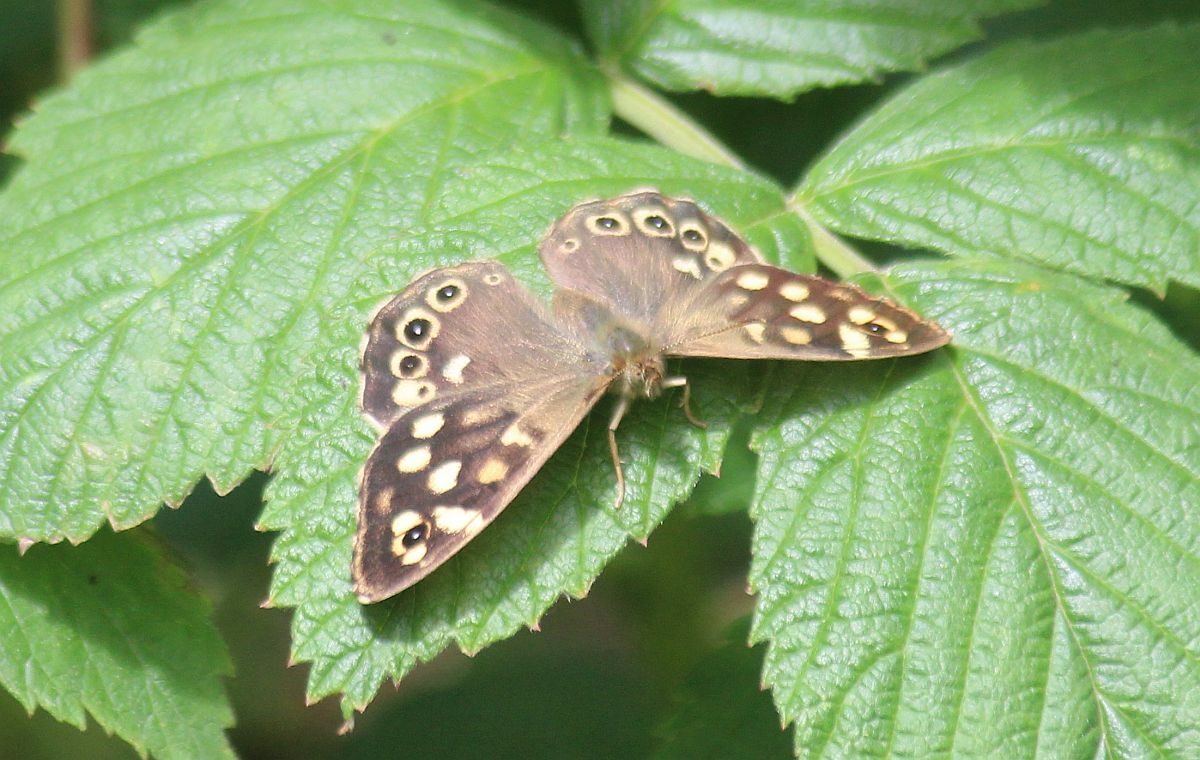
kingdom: Animalia
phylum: Arthropoda
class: Insecta
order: Lepidoptera
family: Nymphalidae
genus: Pararge
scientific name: Pararge aegeria
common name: Speckled wood
